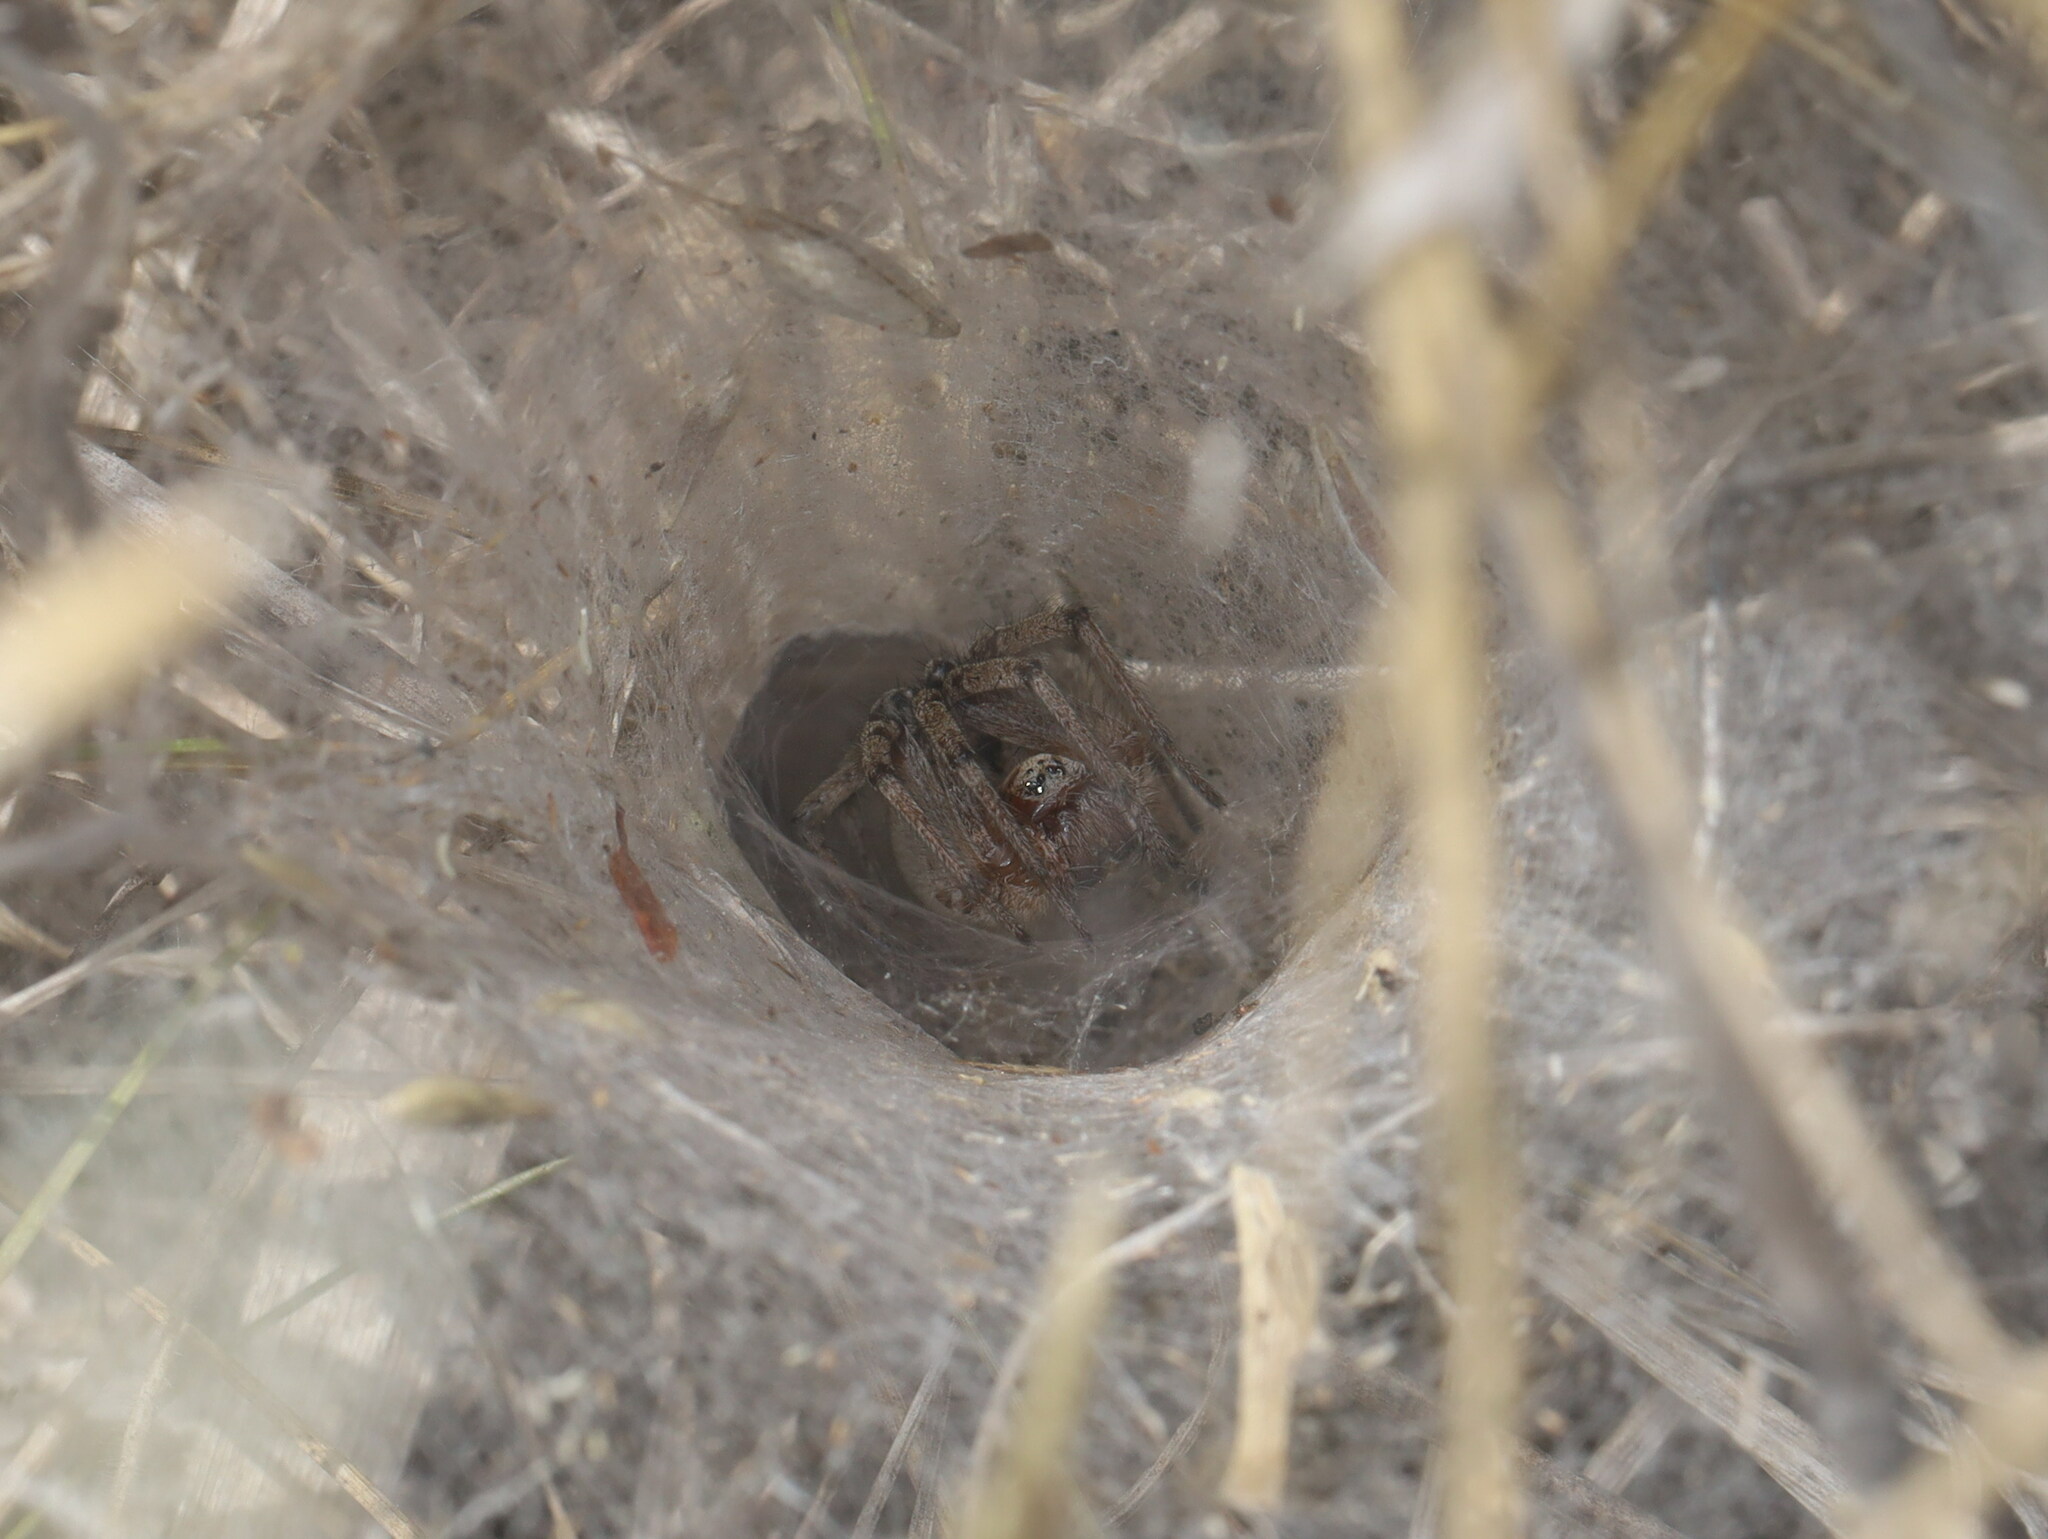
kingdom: Animalia
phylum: Arthropoda
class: Arachnida
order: Araneae
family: Agelenidae
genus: Agelena
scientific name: Agelena labyrinthica
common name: Labyrinth spider
